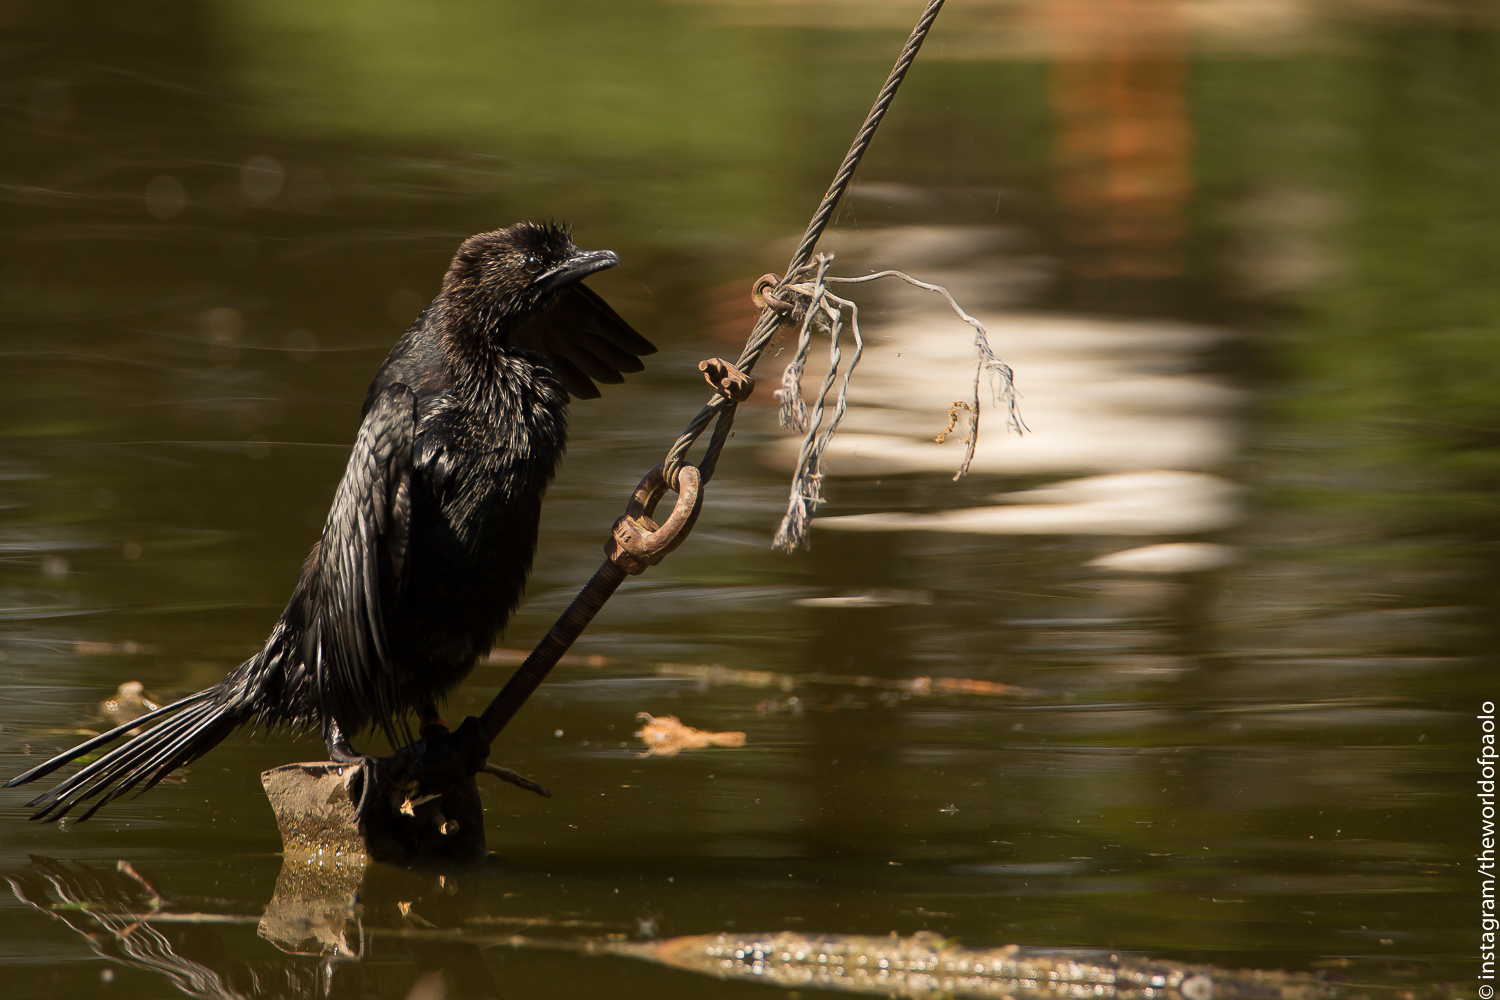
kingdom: Animalia
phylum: Chordata
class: Aves
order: Suliformes
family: Phalacrocoracidae
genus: Microcarbo
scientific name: Microcarbo pygmaeus
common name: Pygmy cormorant
